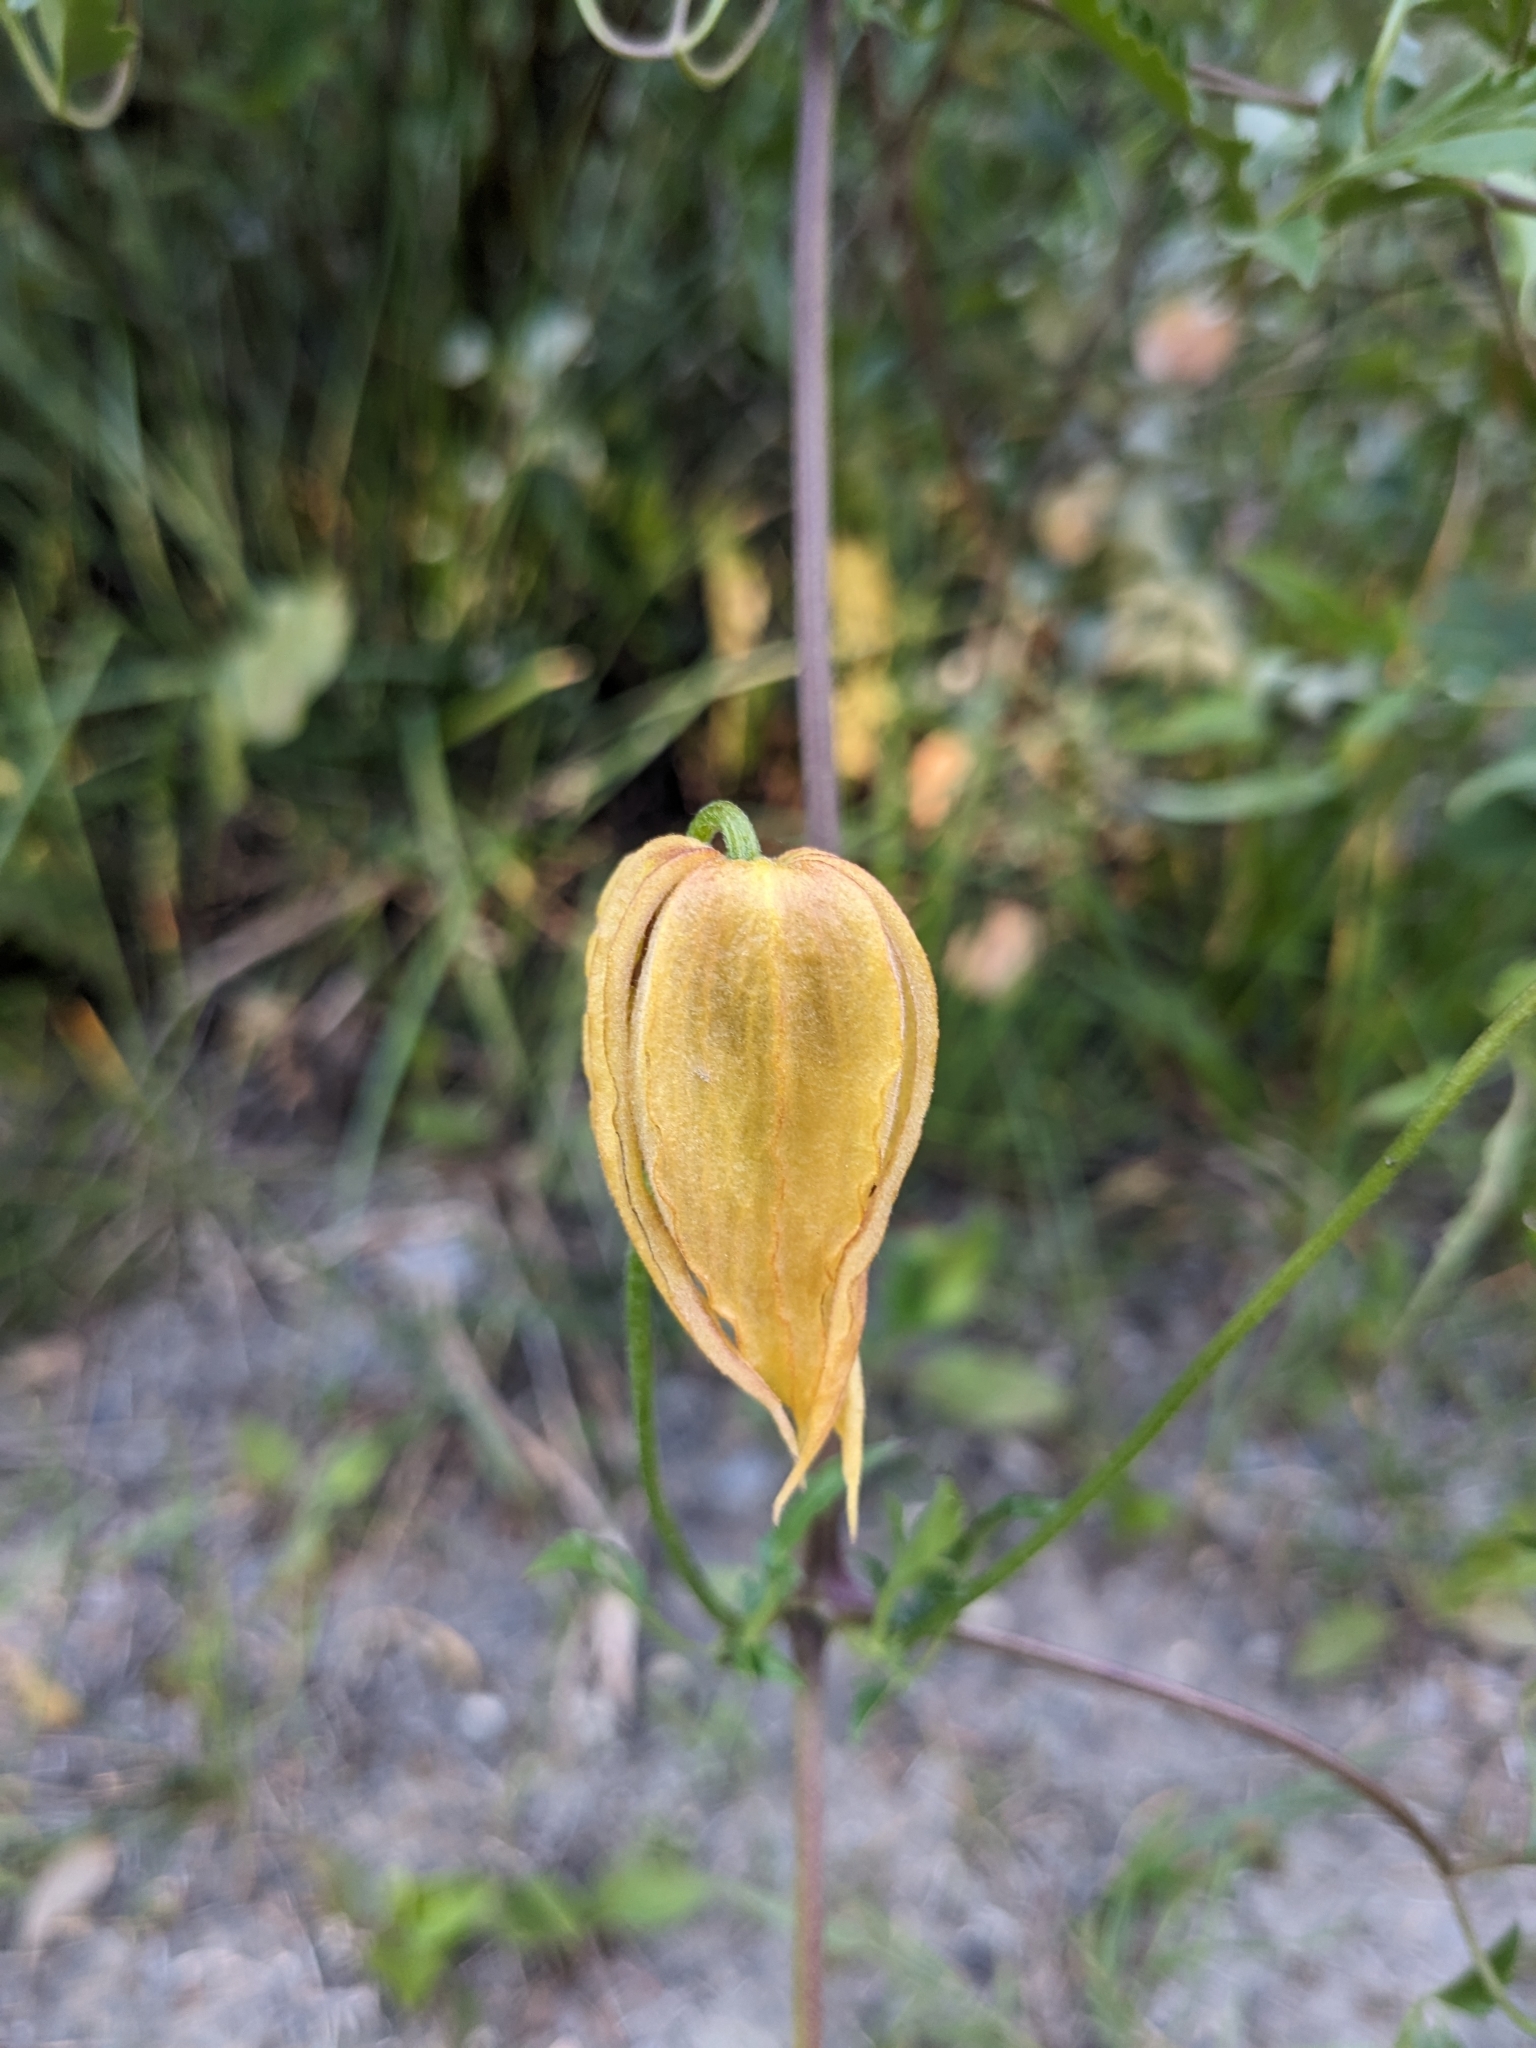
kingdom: Plantae
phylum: Tracheophyta
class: Magnoliopsida
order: Ranunculales
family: Ranunculaceae
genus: Clematis
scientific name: Clematis tangutica
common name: Orange-peel clematis
